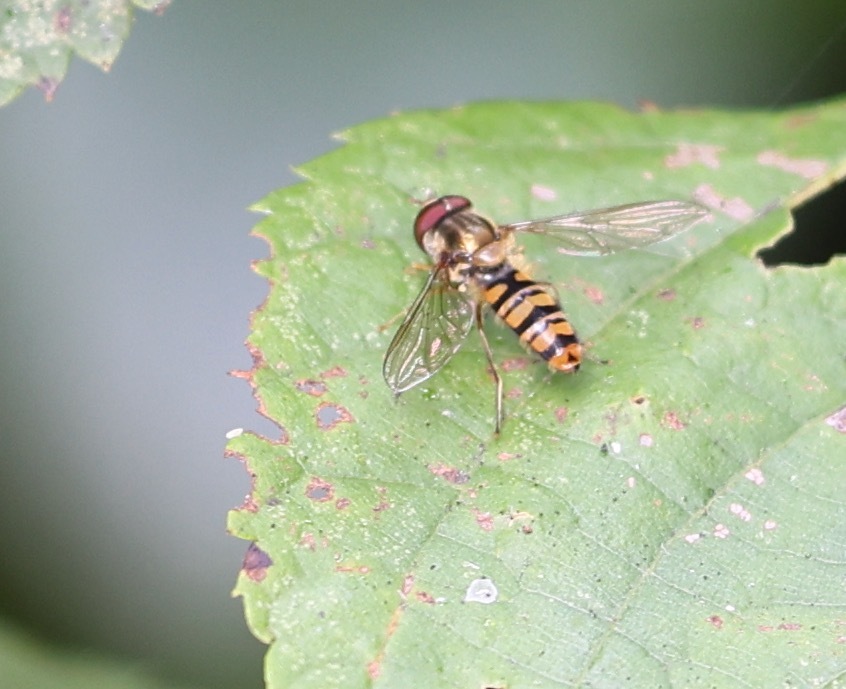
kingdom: Animalia
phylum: Arthropoda
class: Insecta
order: Diptera
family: Syrphidae
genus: Episyrphus
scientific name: Episyrphus balteatus
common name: Marmalade hoverfly
